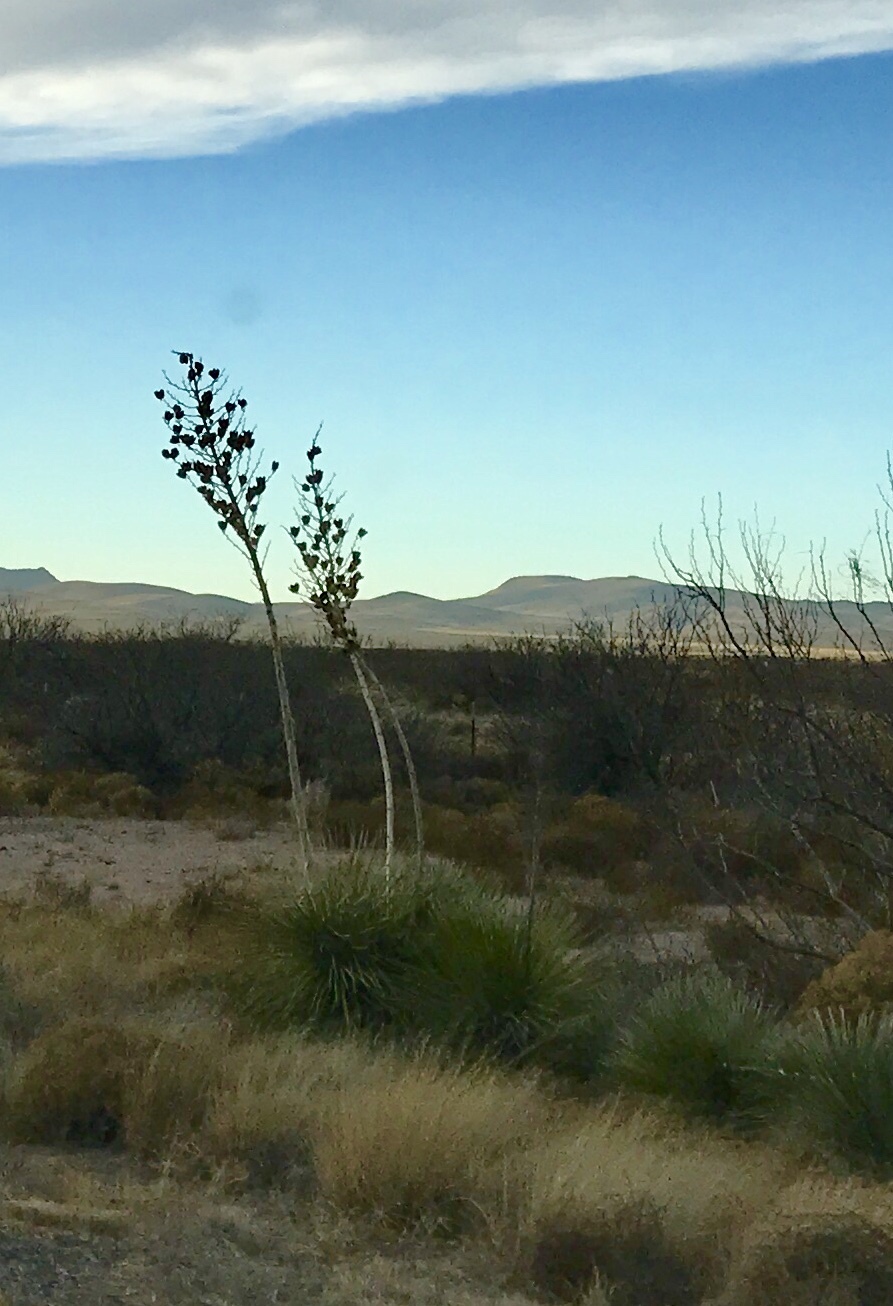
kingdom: Plantae
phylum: Tracheophyta
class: Liliopsida
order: Asparagales
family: Asparagaceae
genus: Yucca
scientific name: Yucca elata
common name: Palmella
